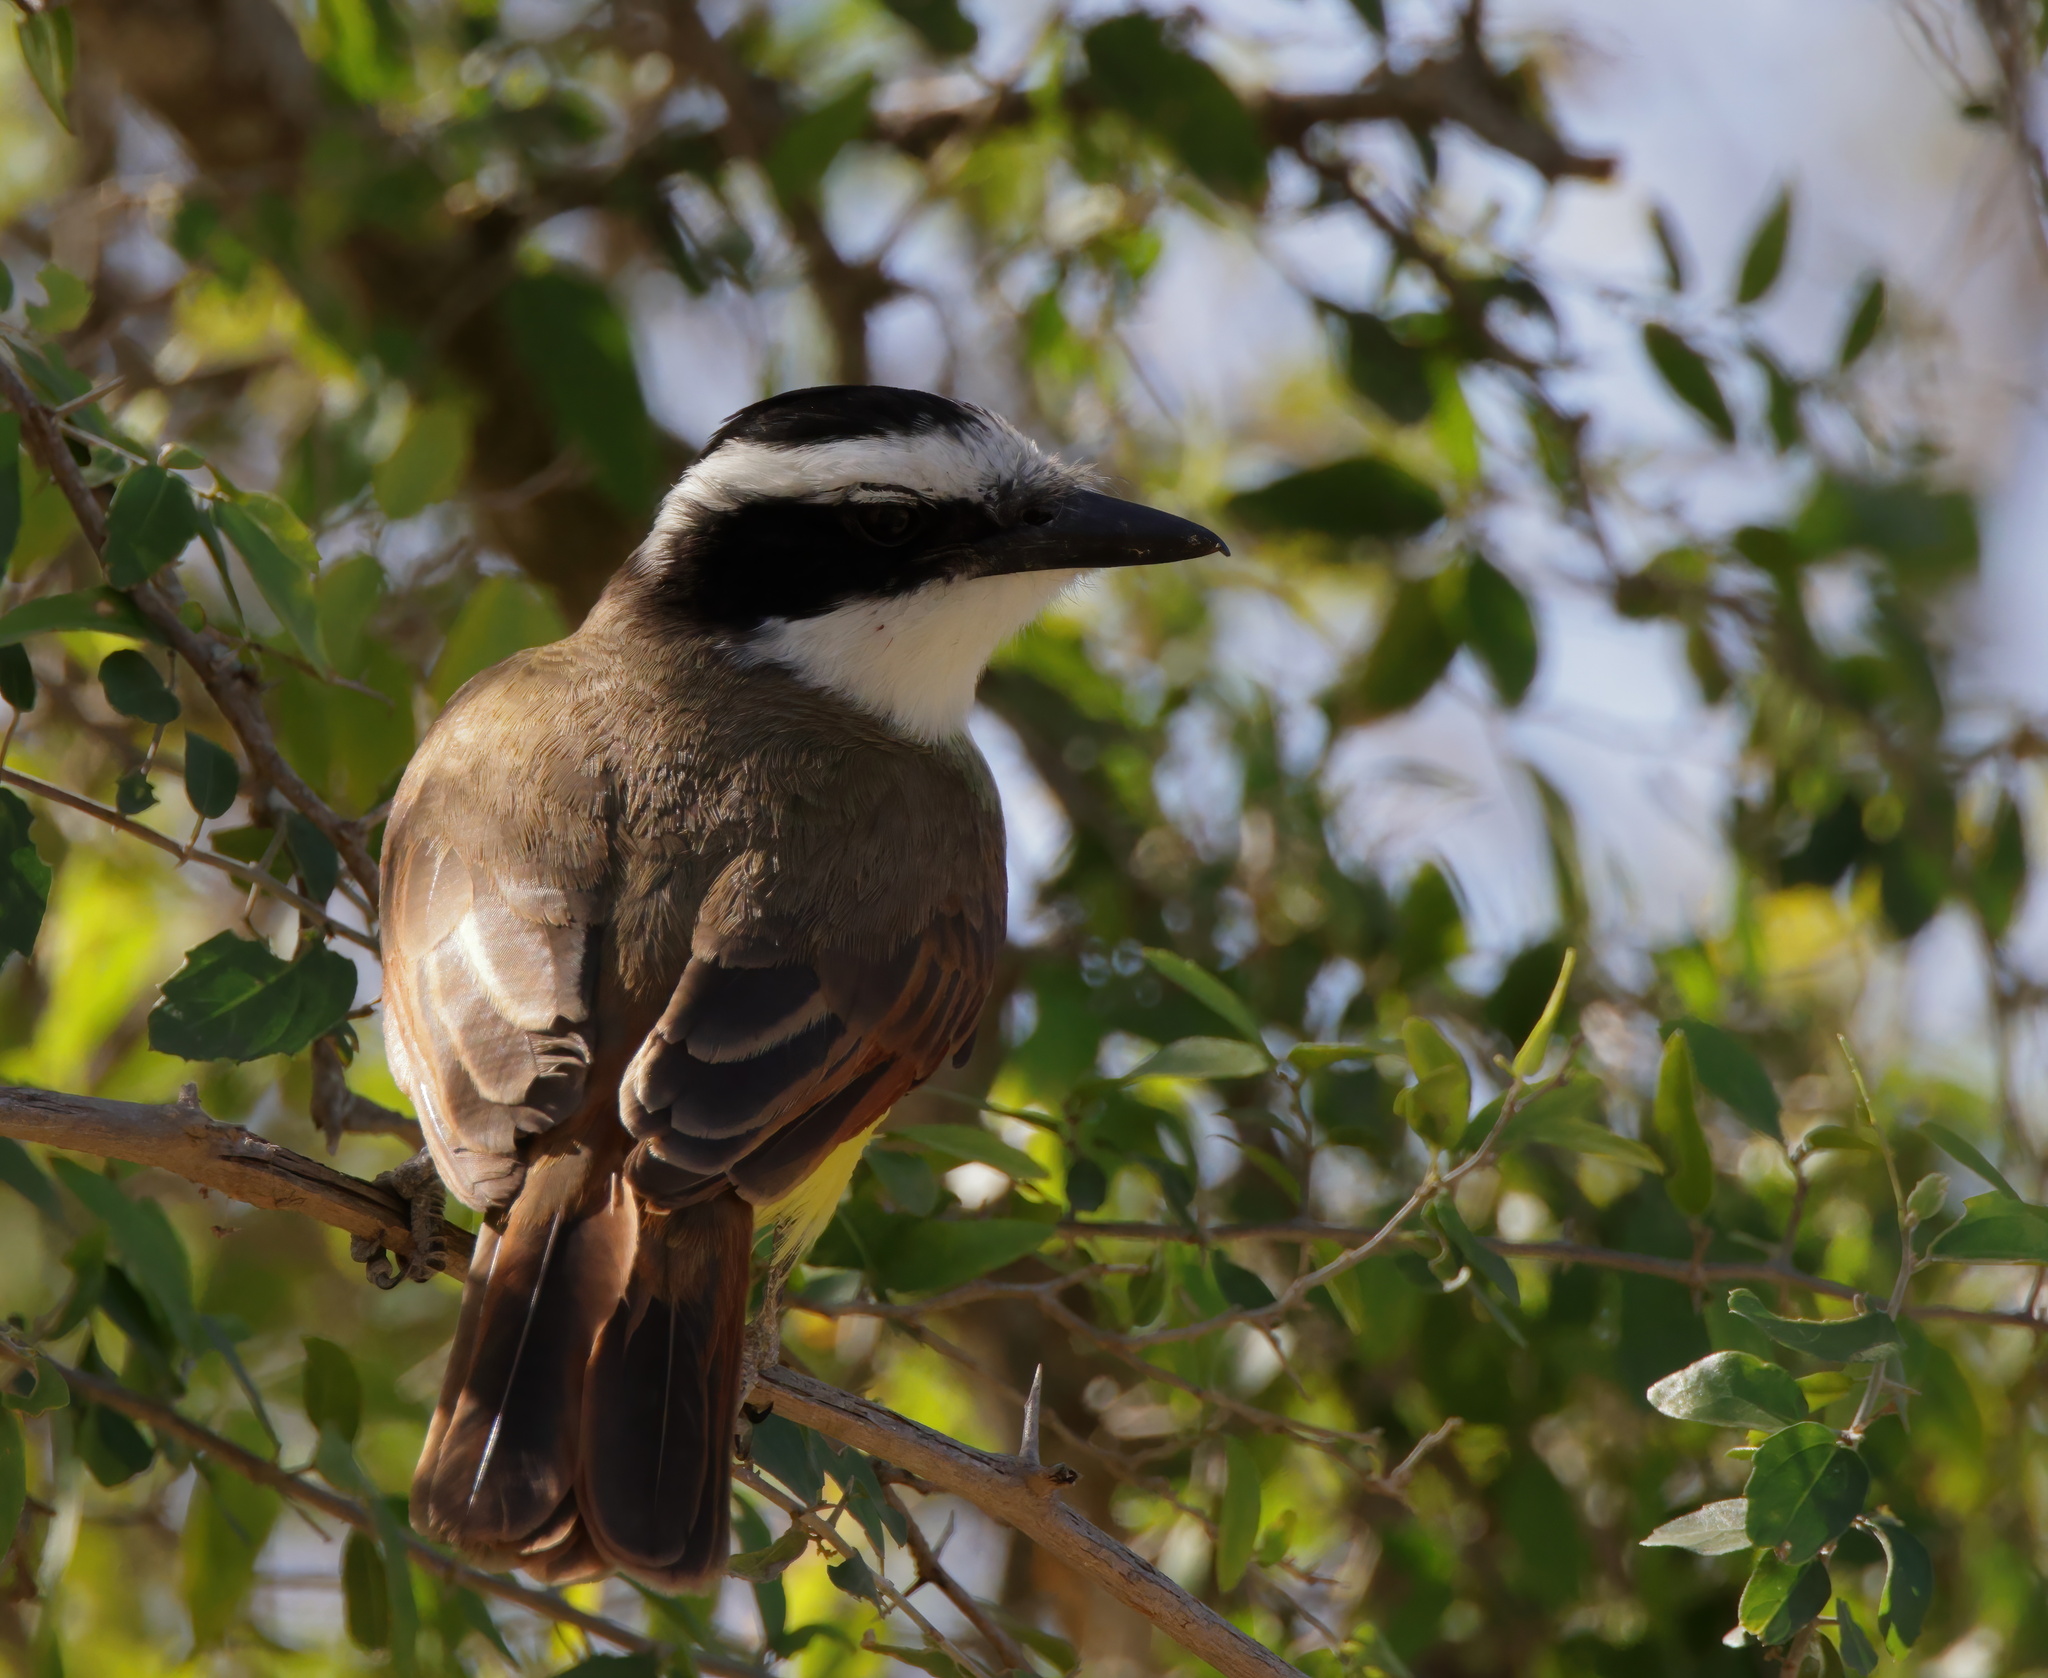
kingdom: Animalia
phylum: Chordata
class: Aves
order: Passeriformes
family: Tyrannidae
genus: Pitangus
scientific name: Pitangus sulphuratus
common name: Great kiskadee
